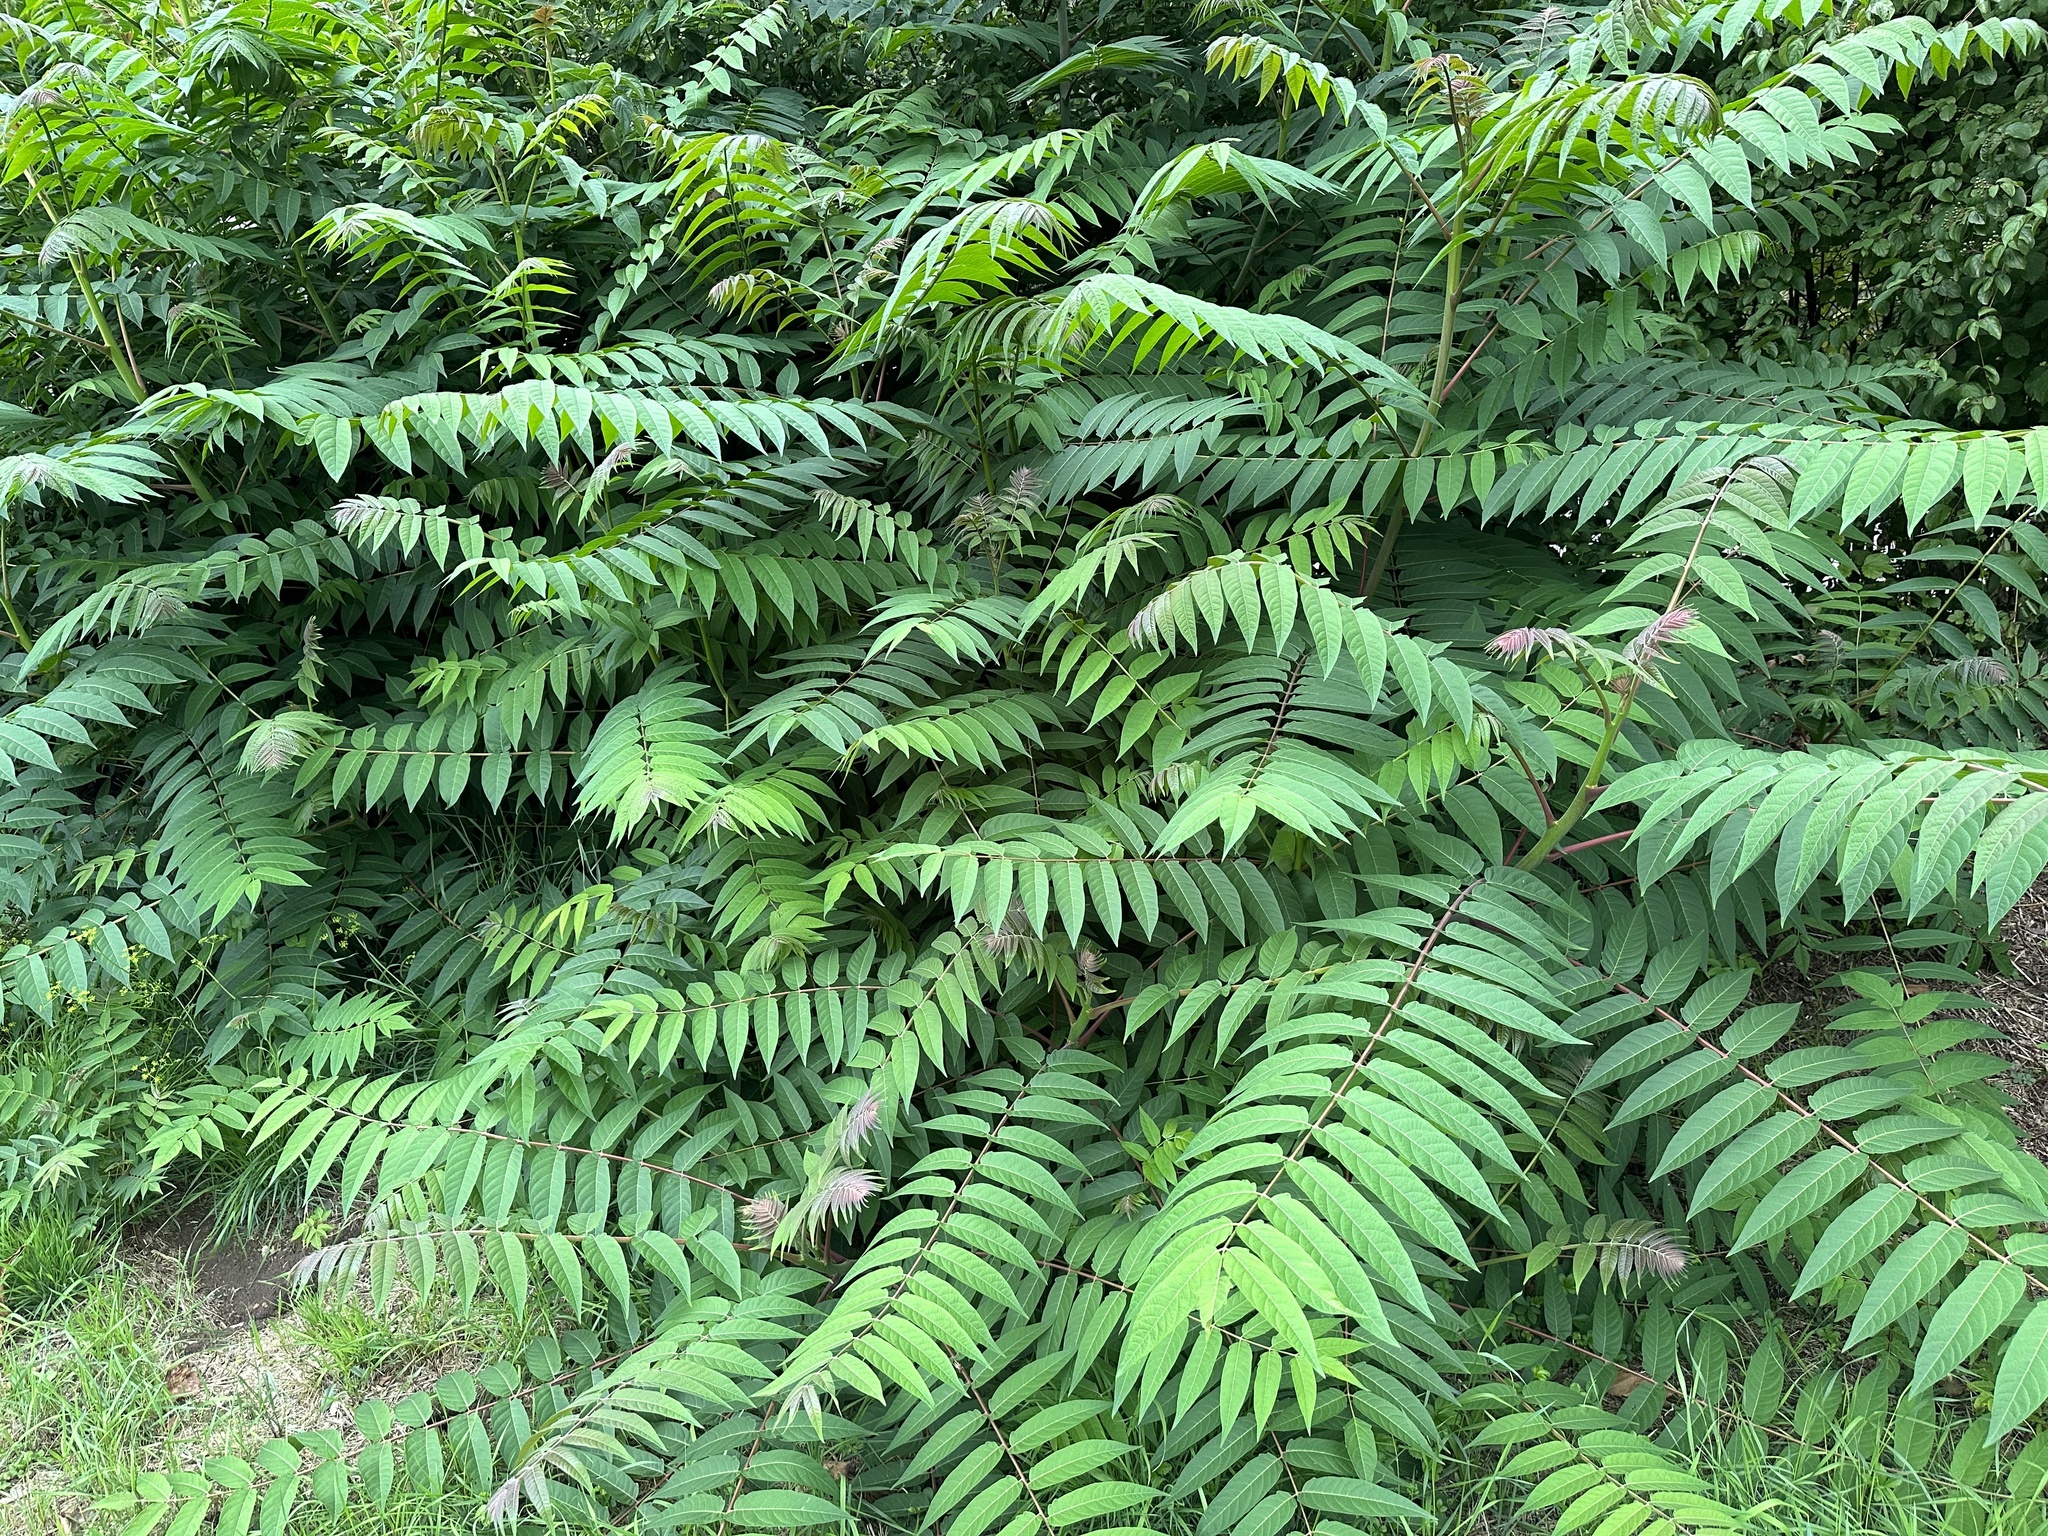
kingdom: Plantae
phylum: Tracheophyta
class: Magnoliopsida
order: Sapindales
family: Simaroubaceae
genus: Ailanthus
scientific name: Ailanthus altissima
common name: Tree-of-heaven
